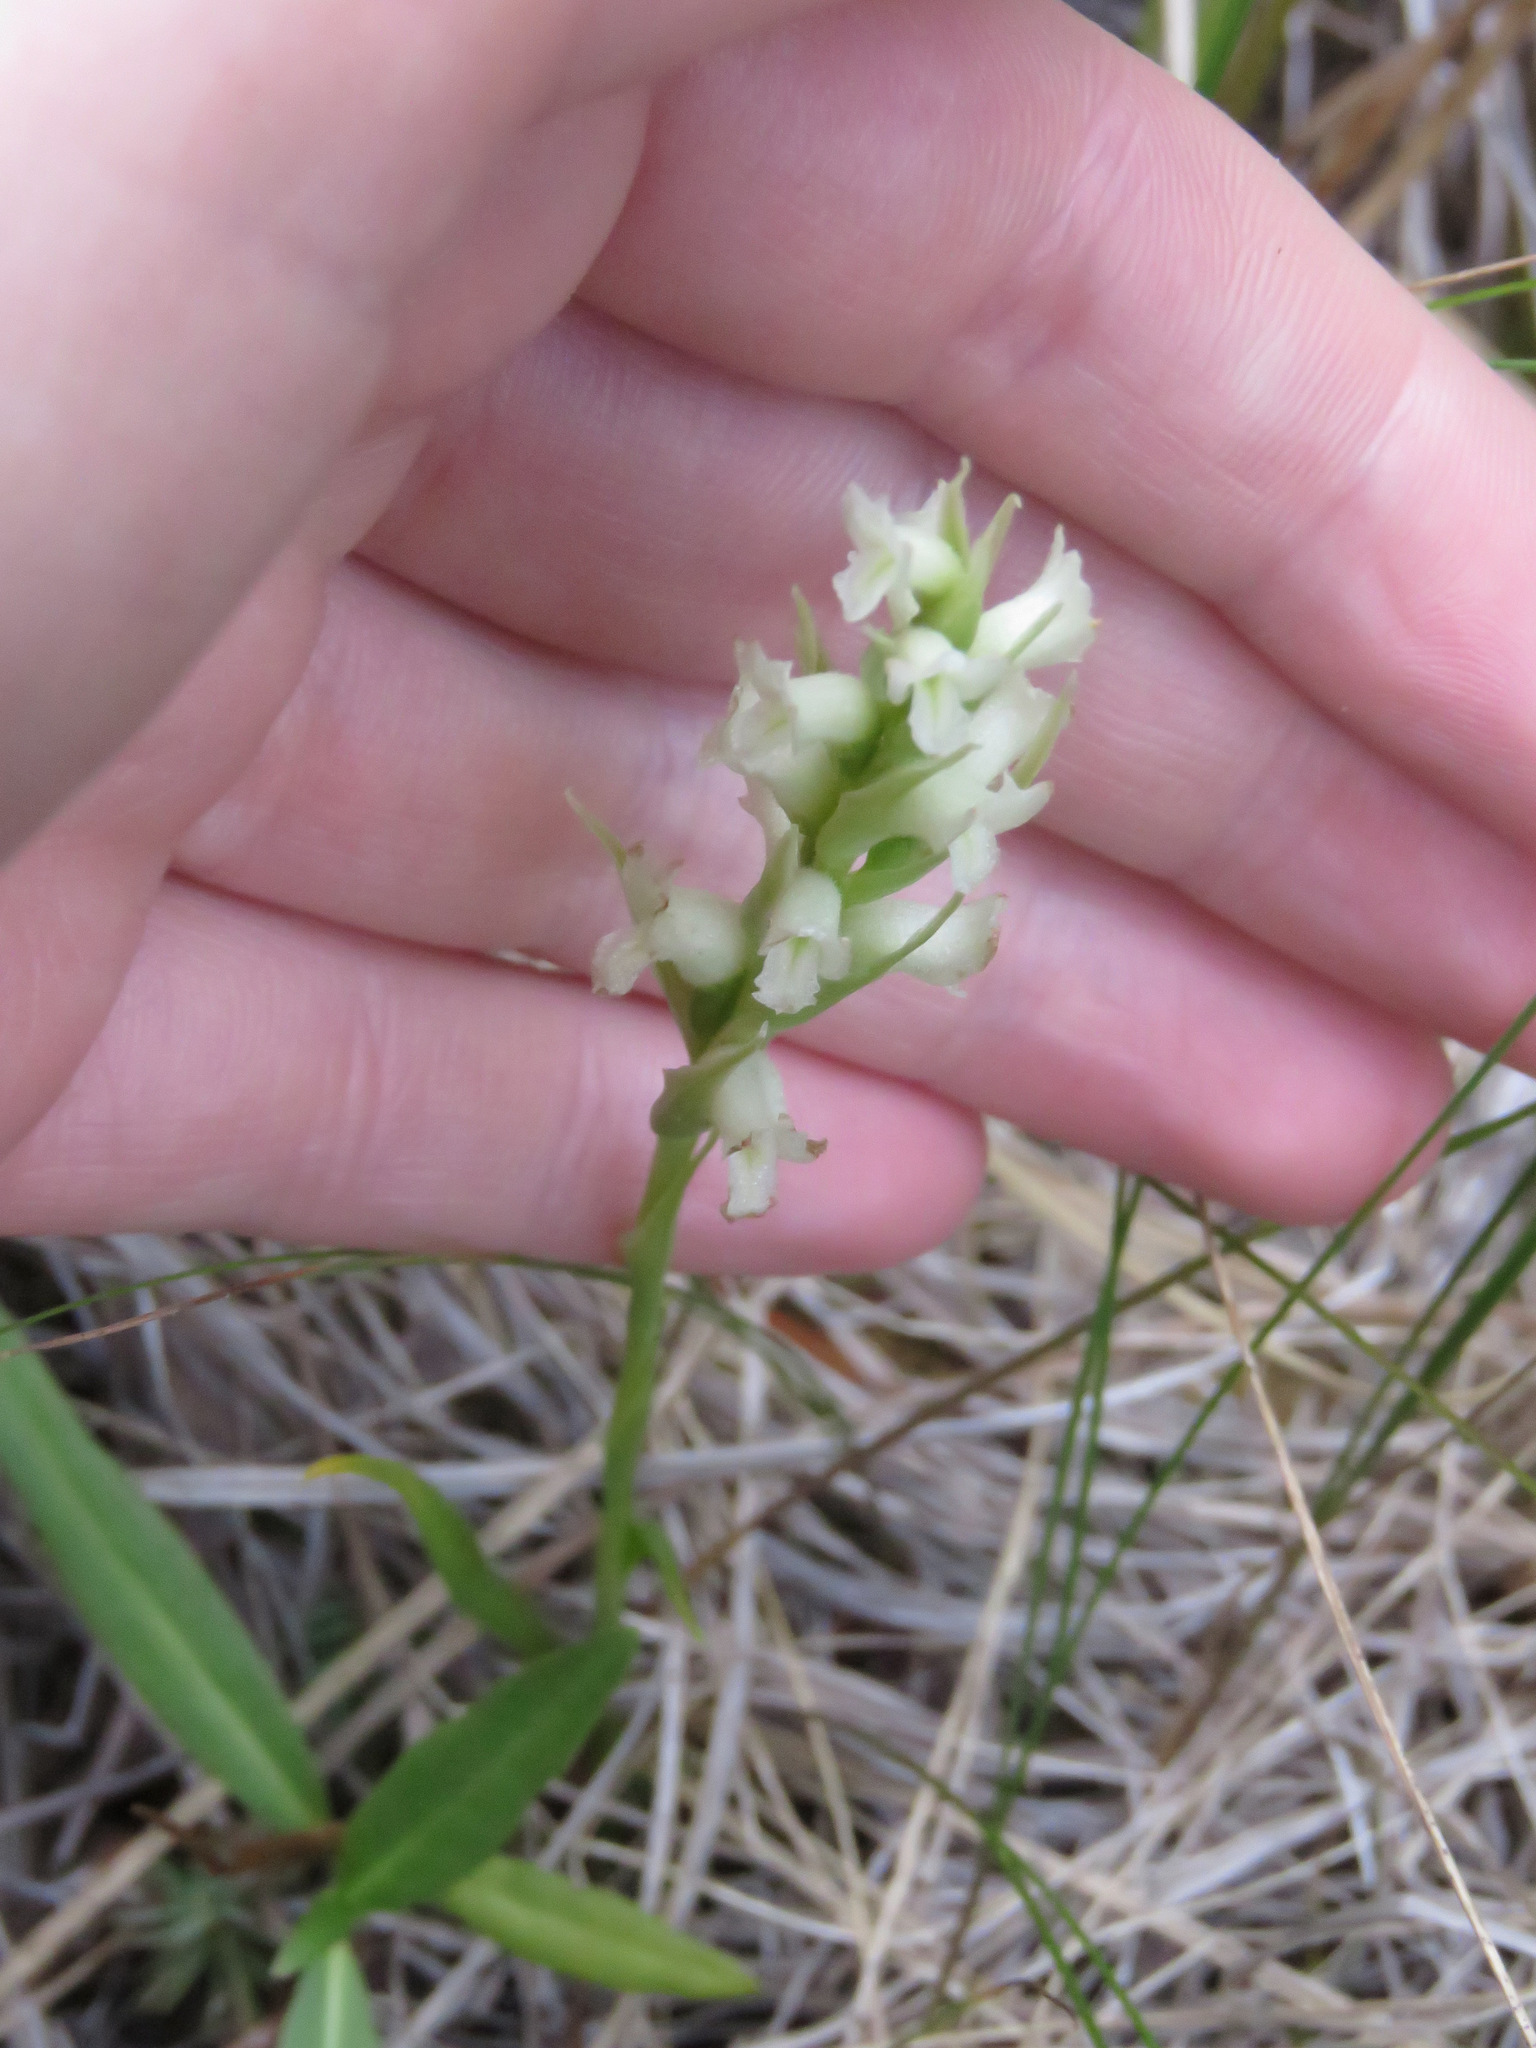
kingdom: Plantae
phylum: Tracheophyta
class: Liliopsida
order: Asparagales
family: Orchidaceae
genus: Spiranthes
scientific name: Spiranthes romanzoffiana
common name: Irish lady's-tresses
